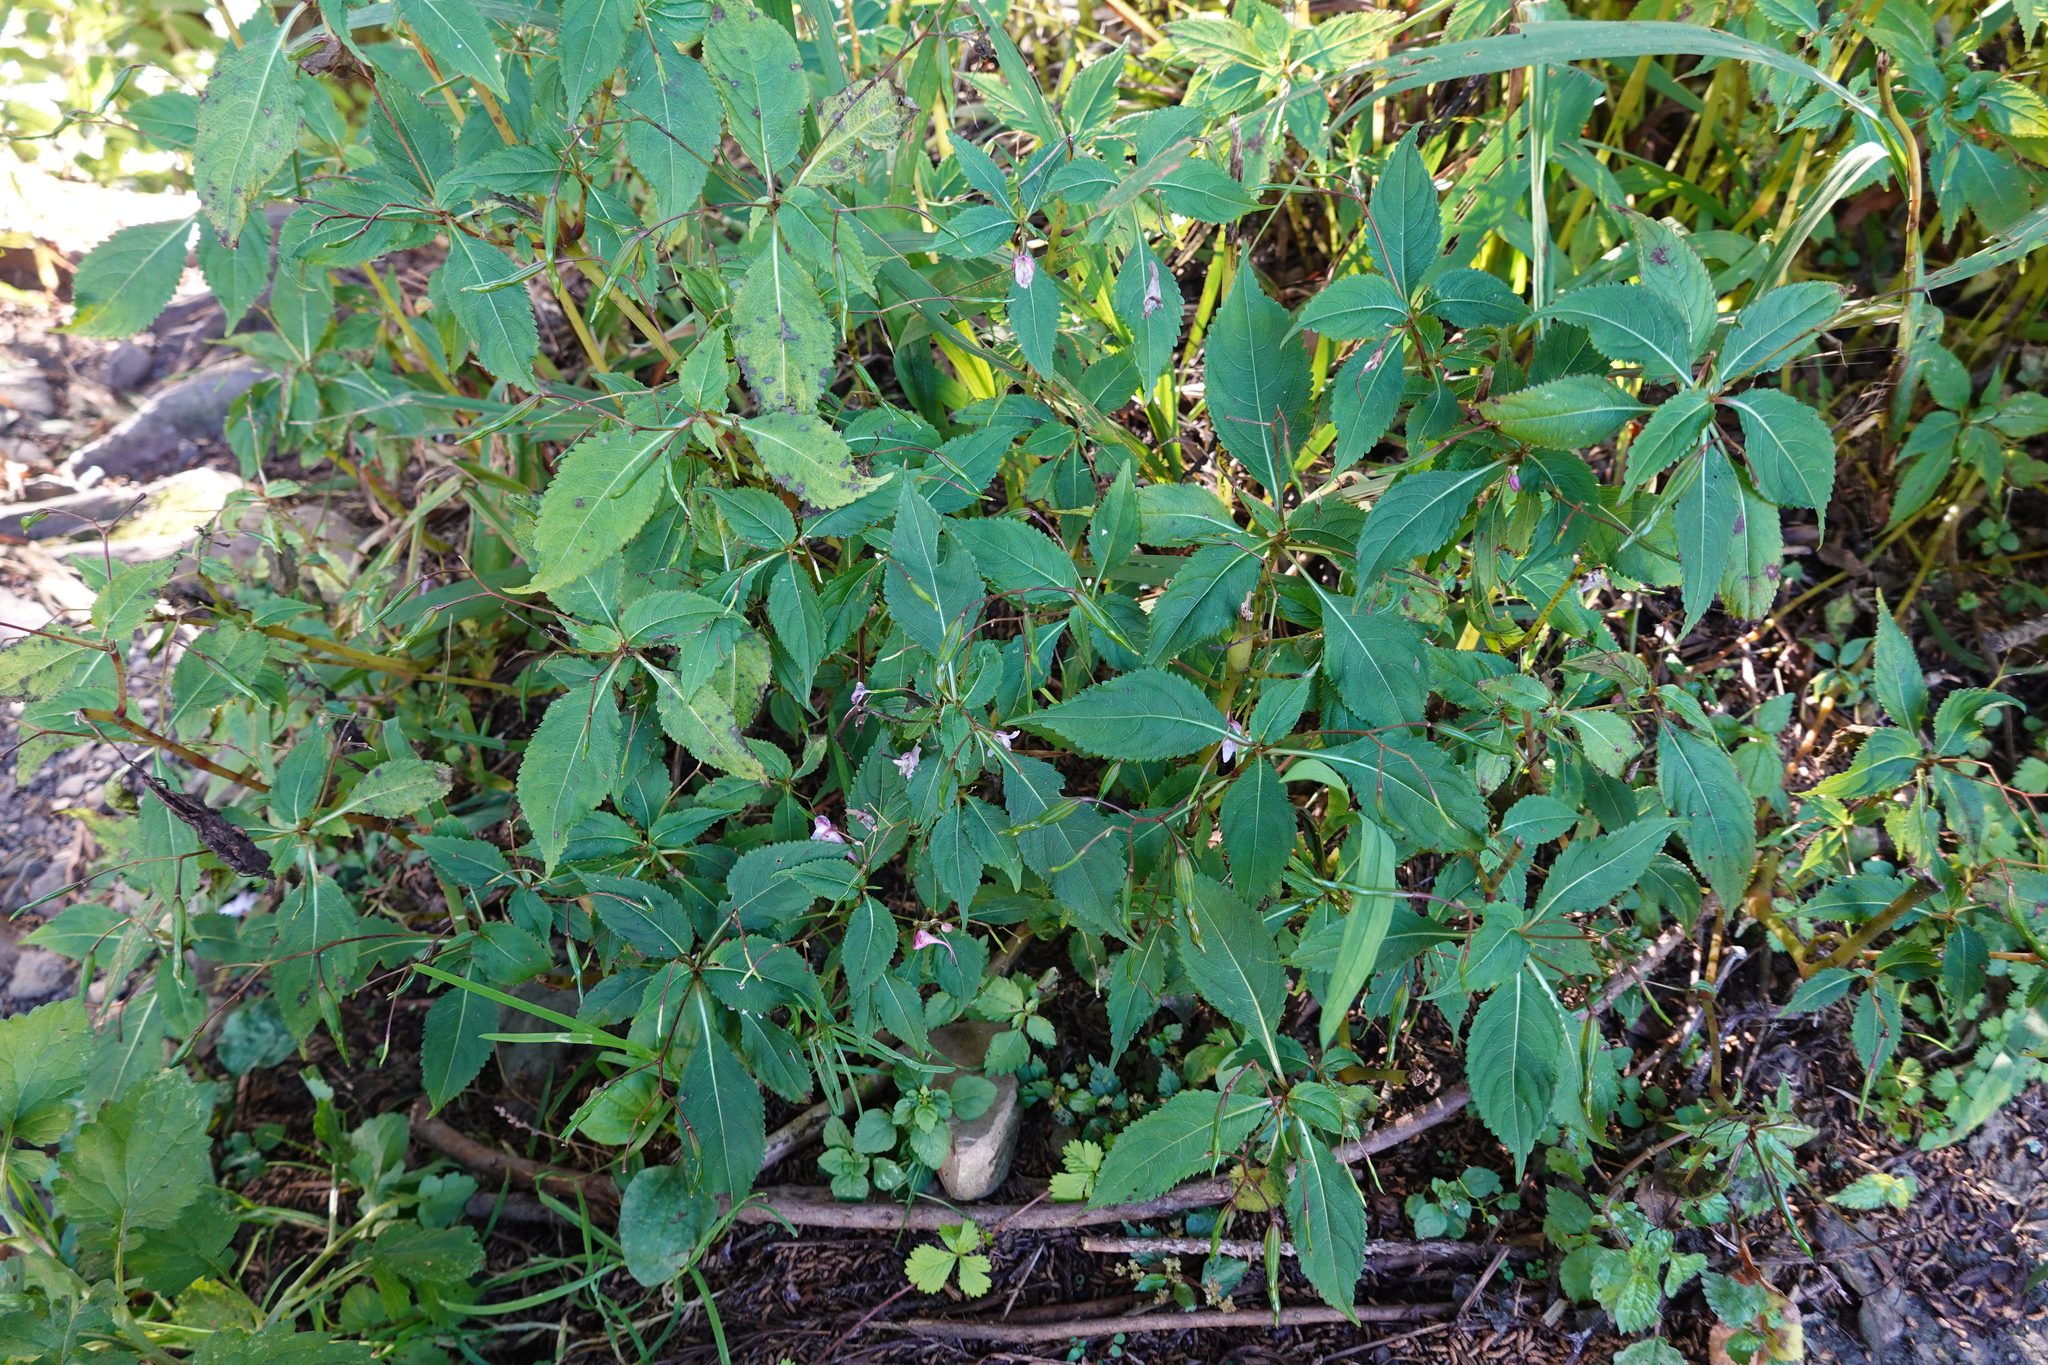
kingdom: Plantae
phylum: Tracheophyta
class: Magnoliopsida
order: Ericales
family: Balsaminaceae
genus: Impatiens
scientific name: Impatiens devolii
